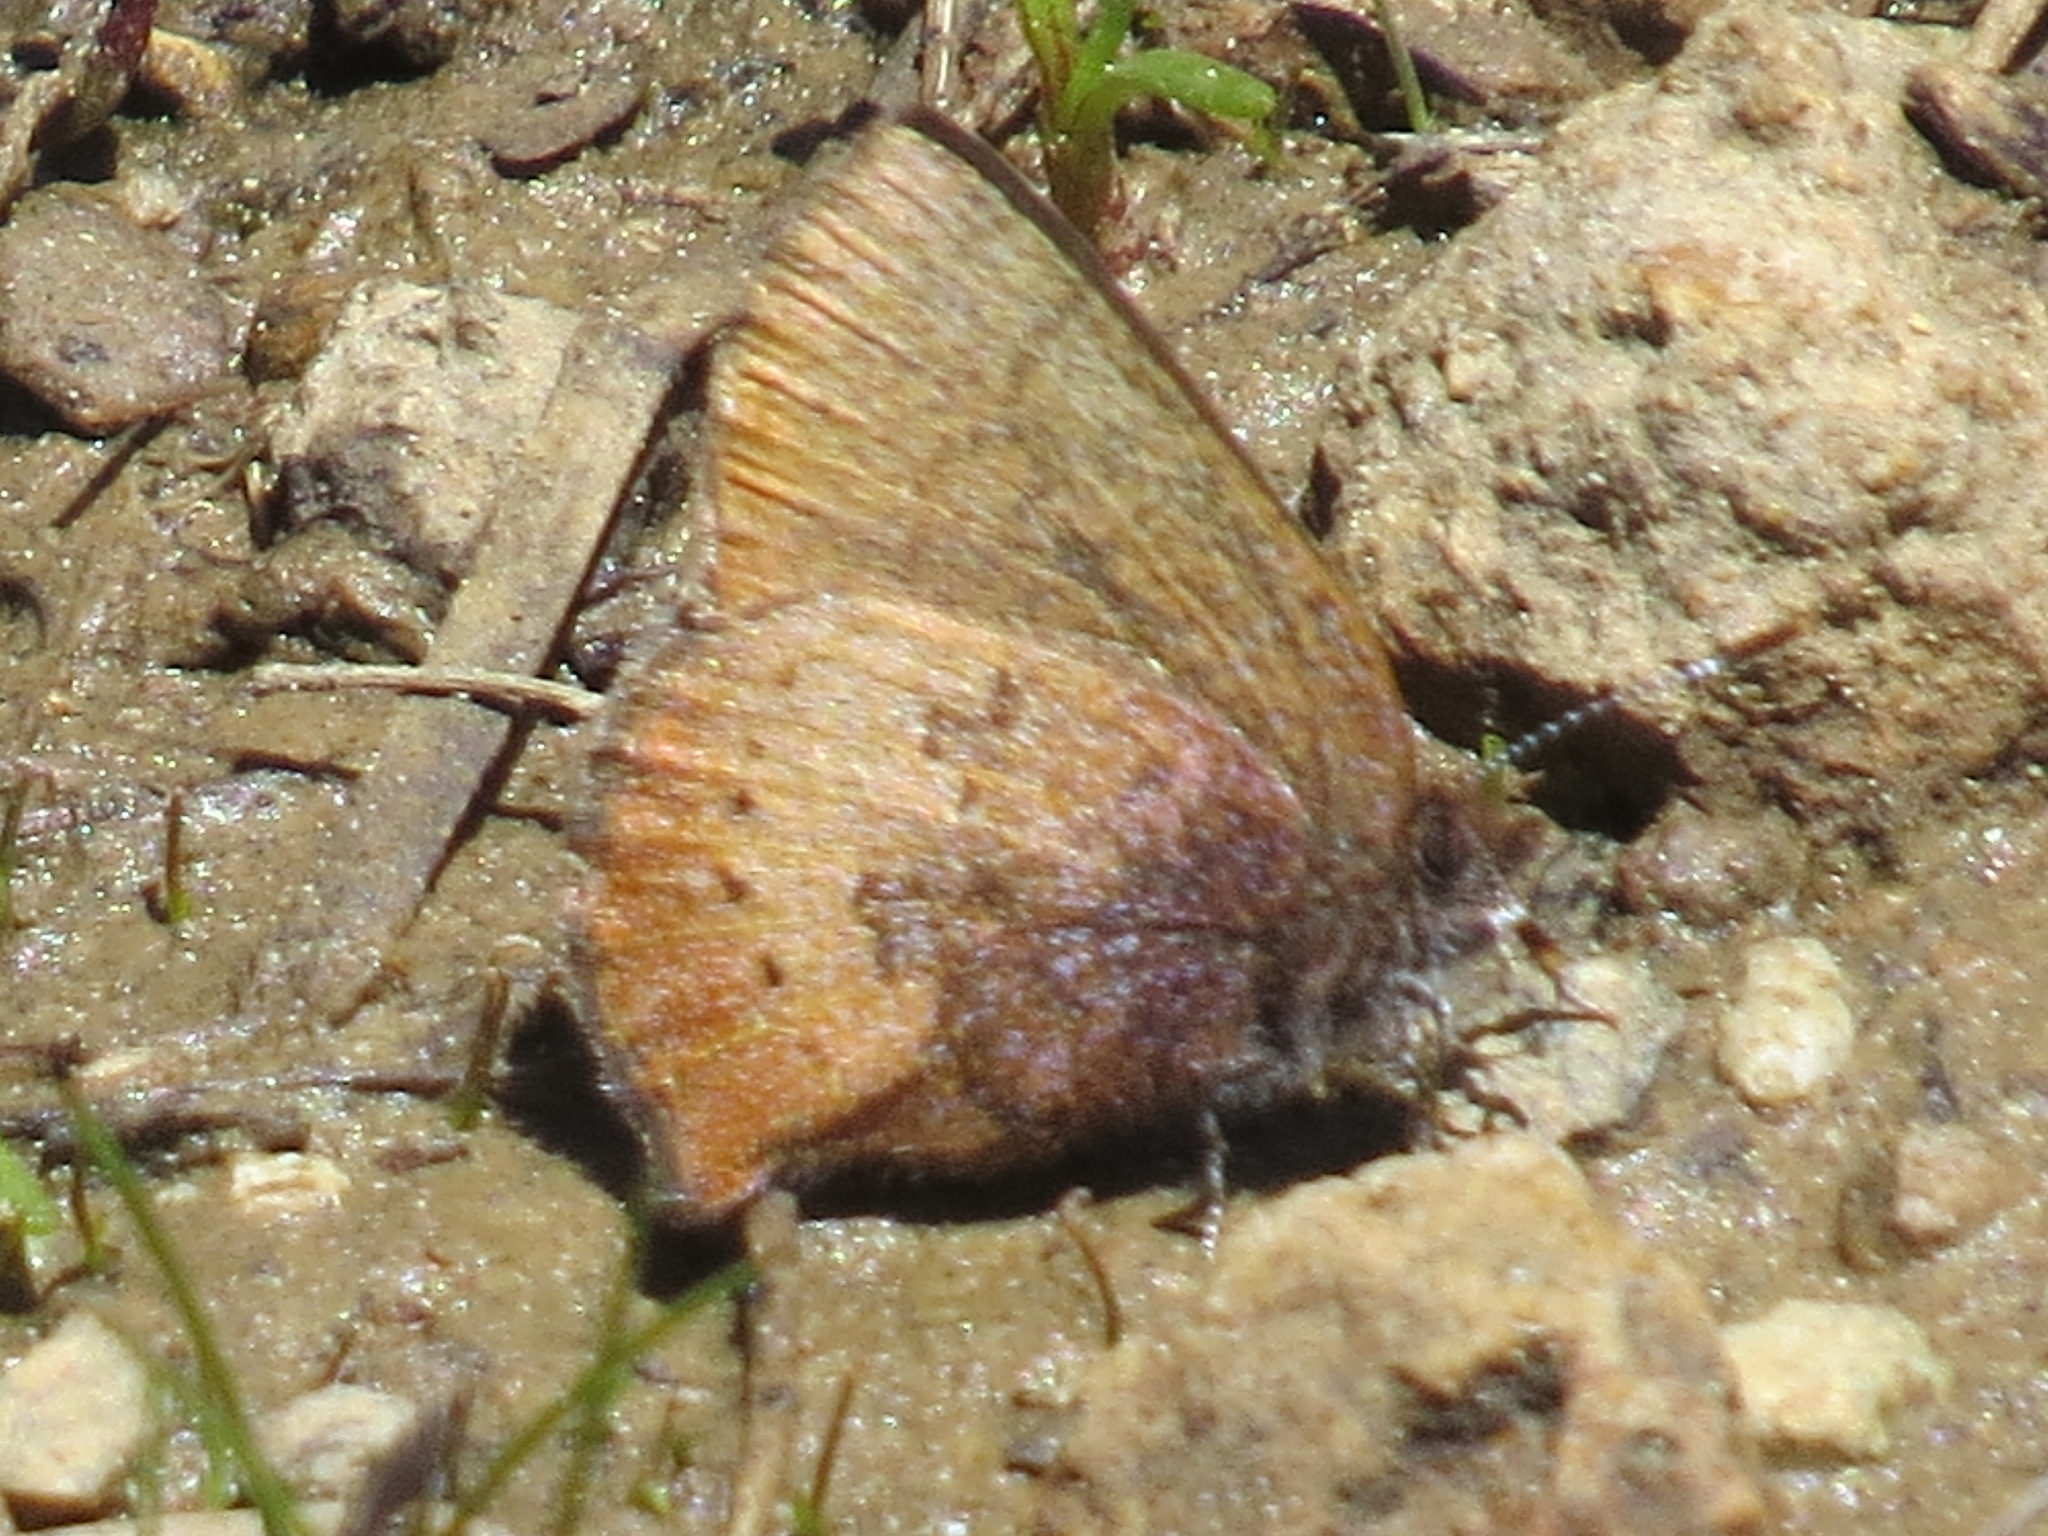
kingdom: Animalia
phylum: Arthropoda
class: Insecta
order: Lepidoptera
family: Lycaenidae
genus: Incisalia
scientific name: Incisalia irioides
